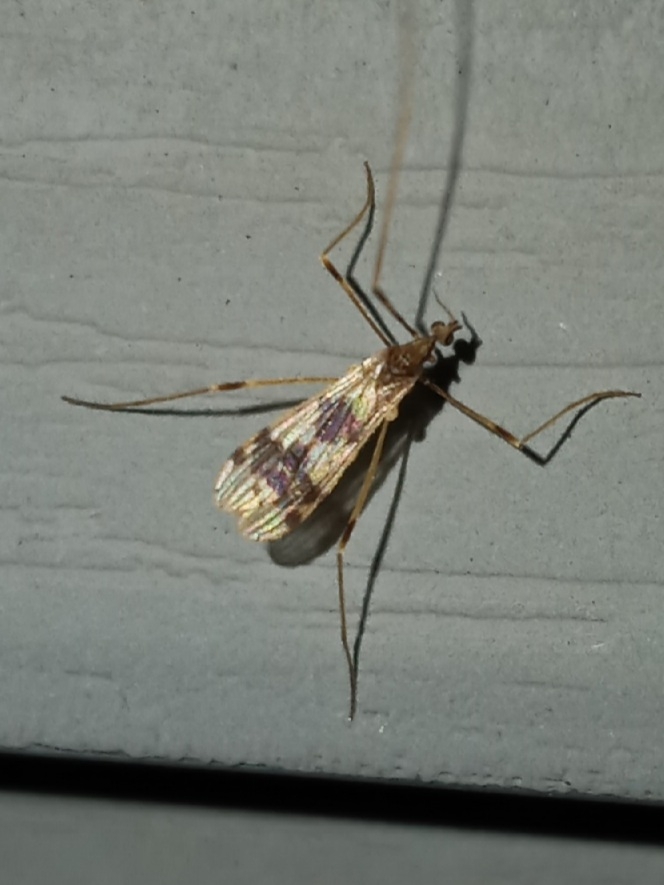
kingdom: Animalia
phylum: Arthropoda
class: Insecta
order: Diptera
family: Limoniidae
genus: Ilisia
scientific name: Ilisia venusta
